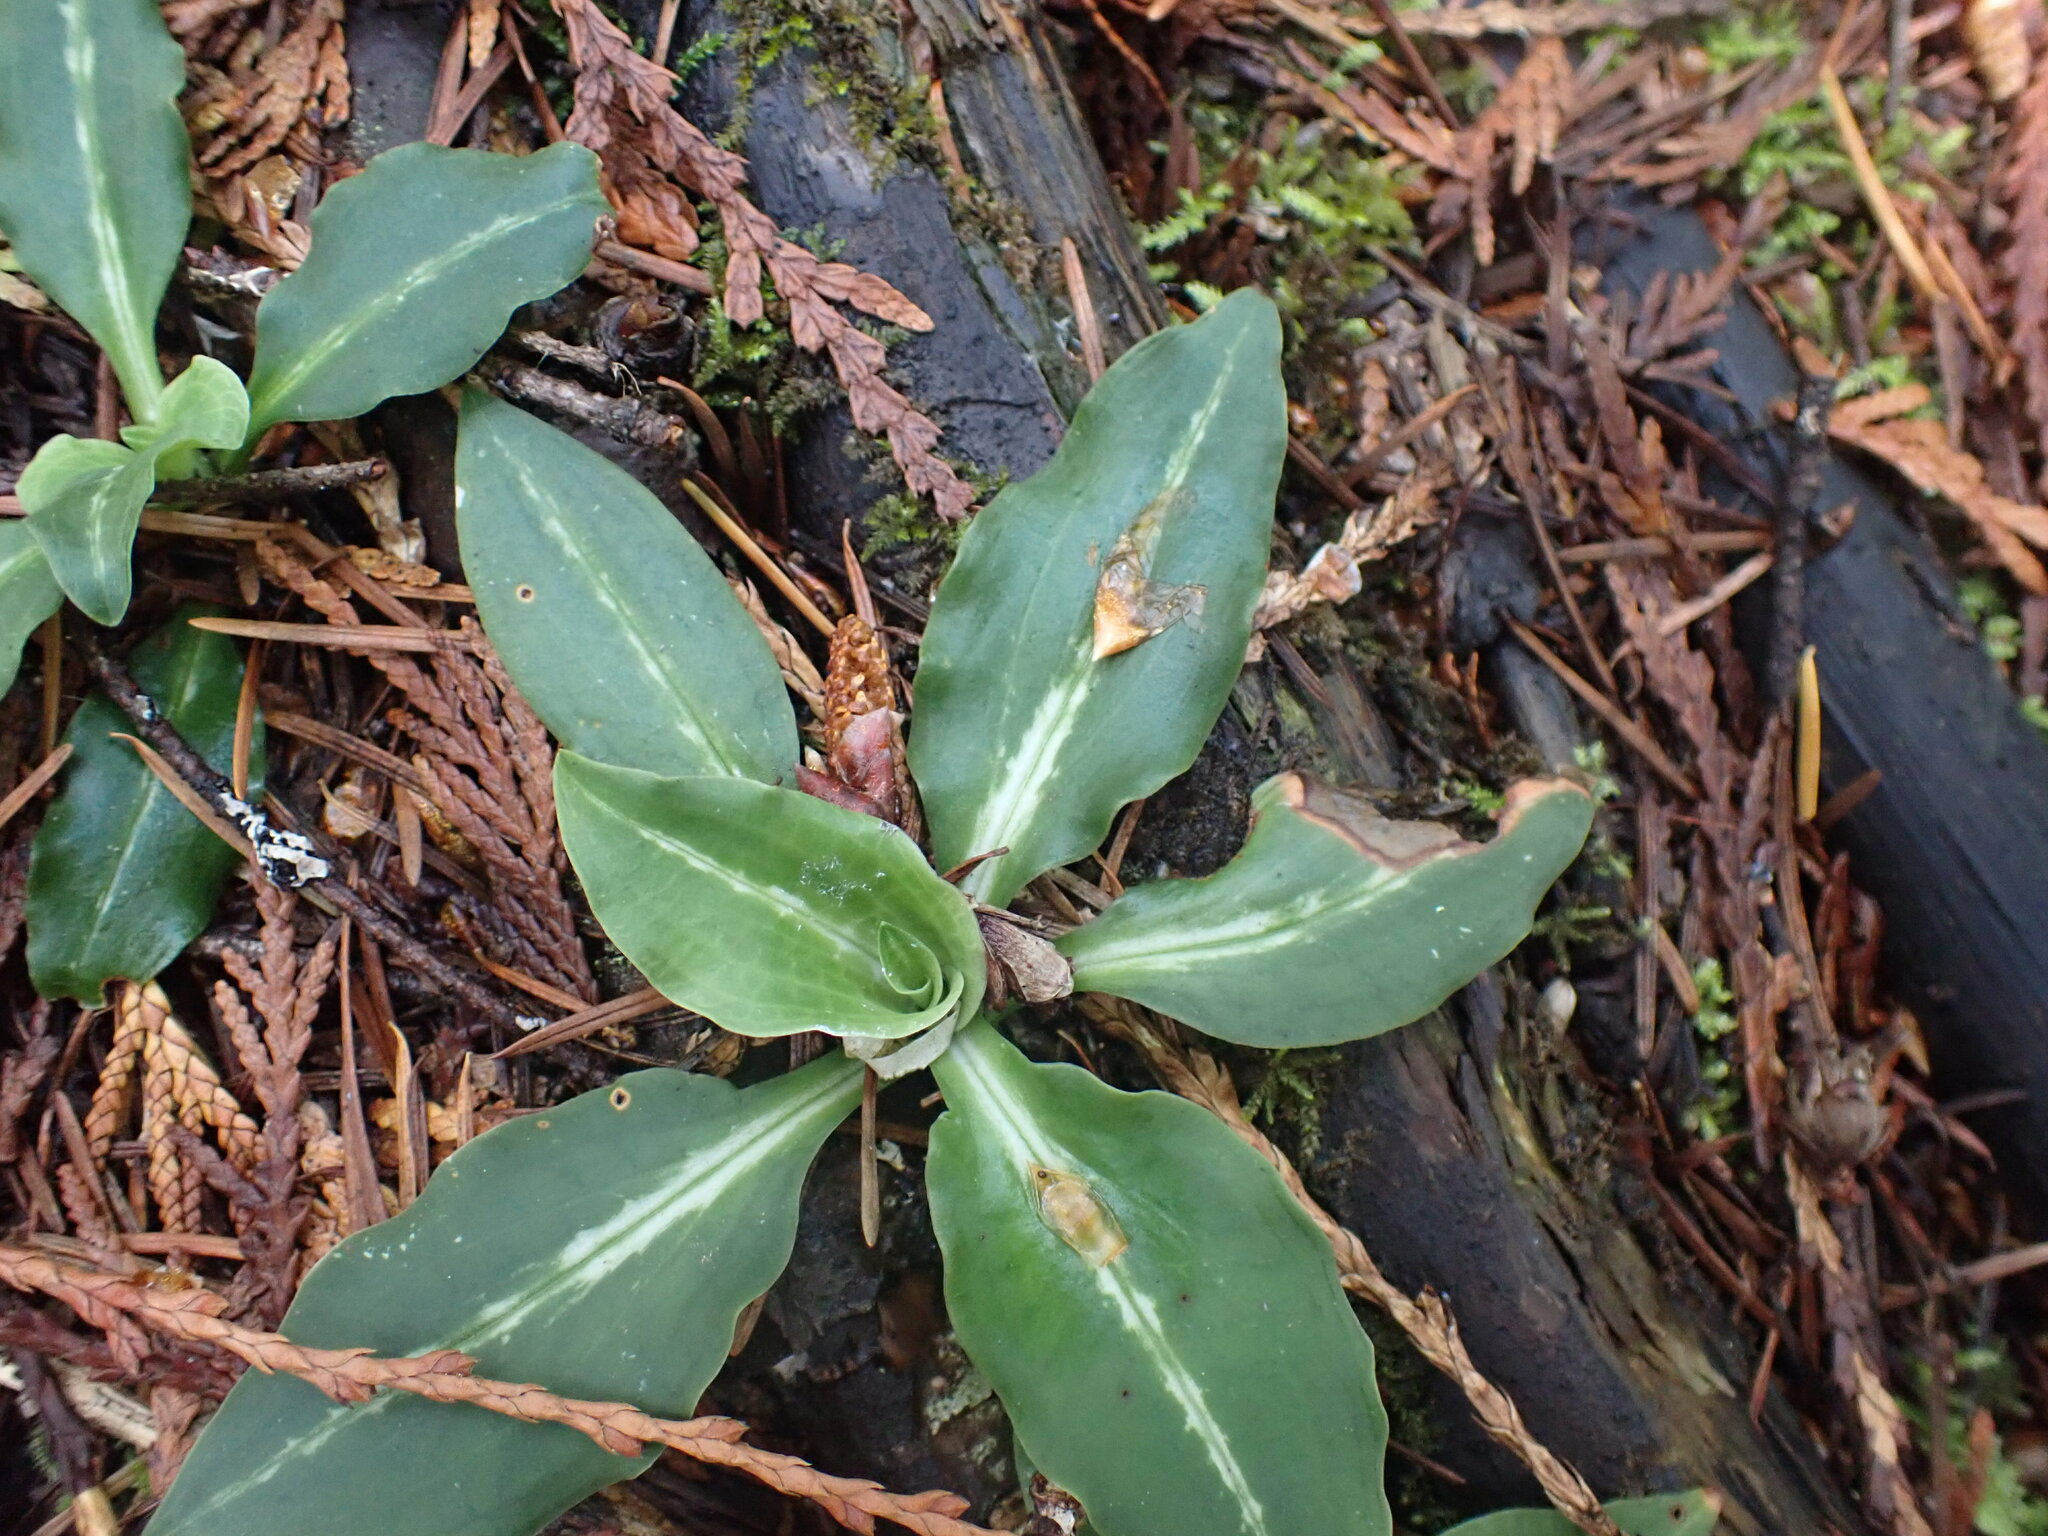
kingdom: Plantae
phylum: Tracheophyta
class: Liliopsida
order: Asparagales
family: Orchidaceae
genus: Goodyera
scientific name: Goodyera oblongifolia
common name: Giant rattlesnake-plantain
